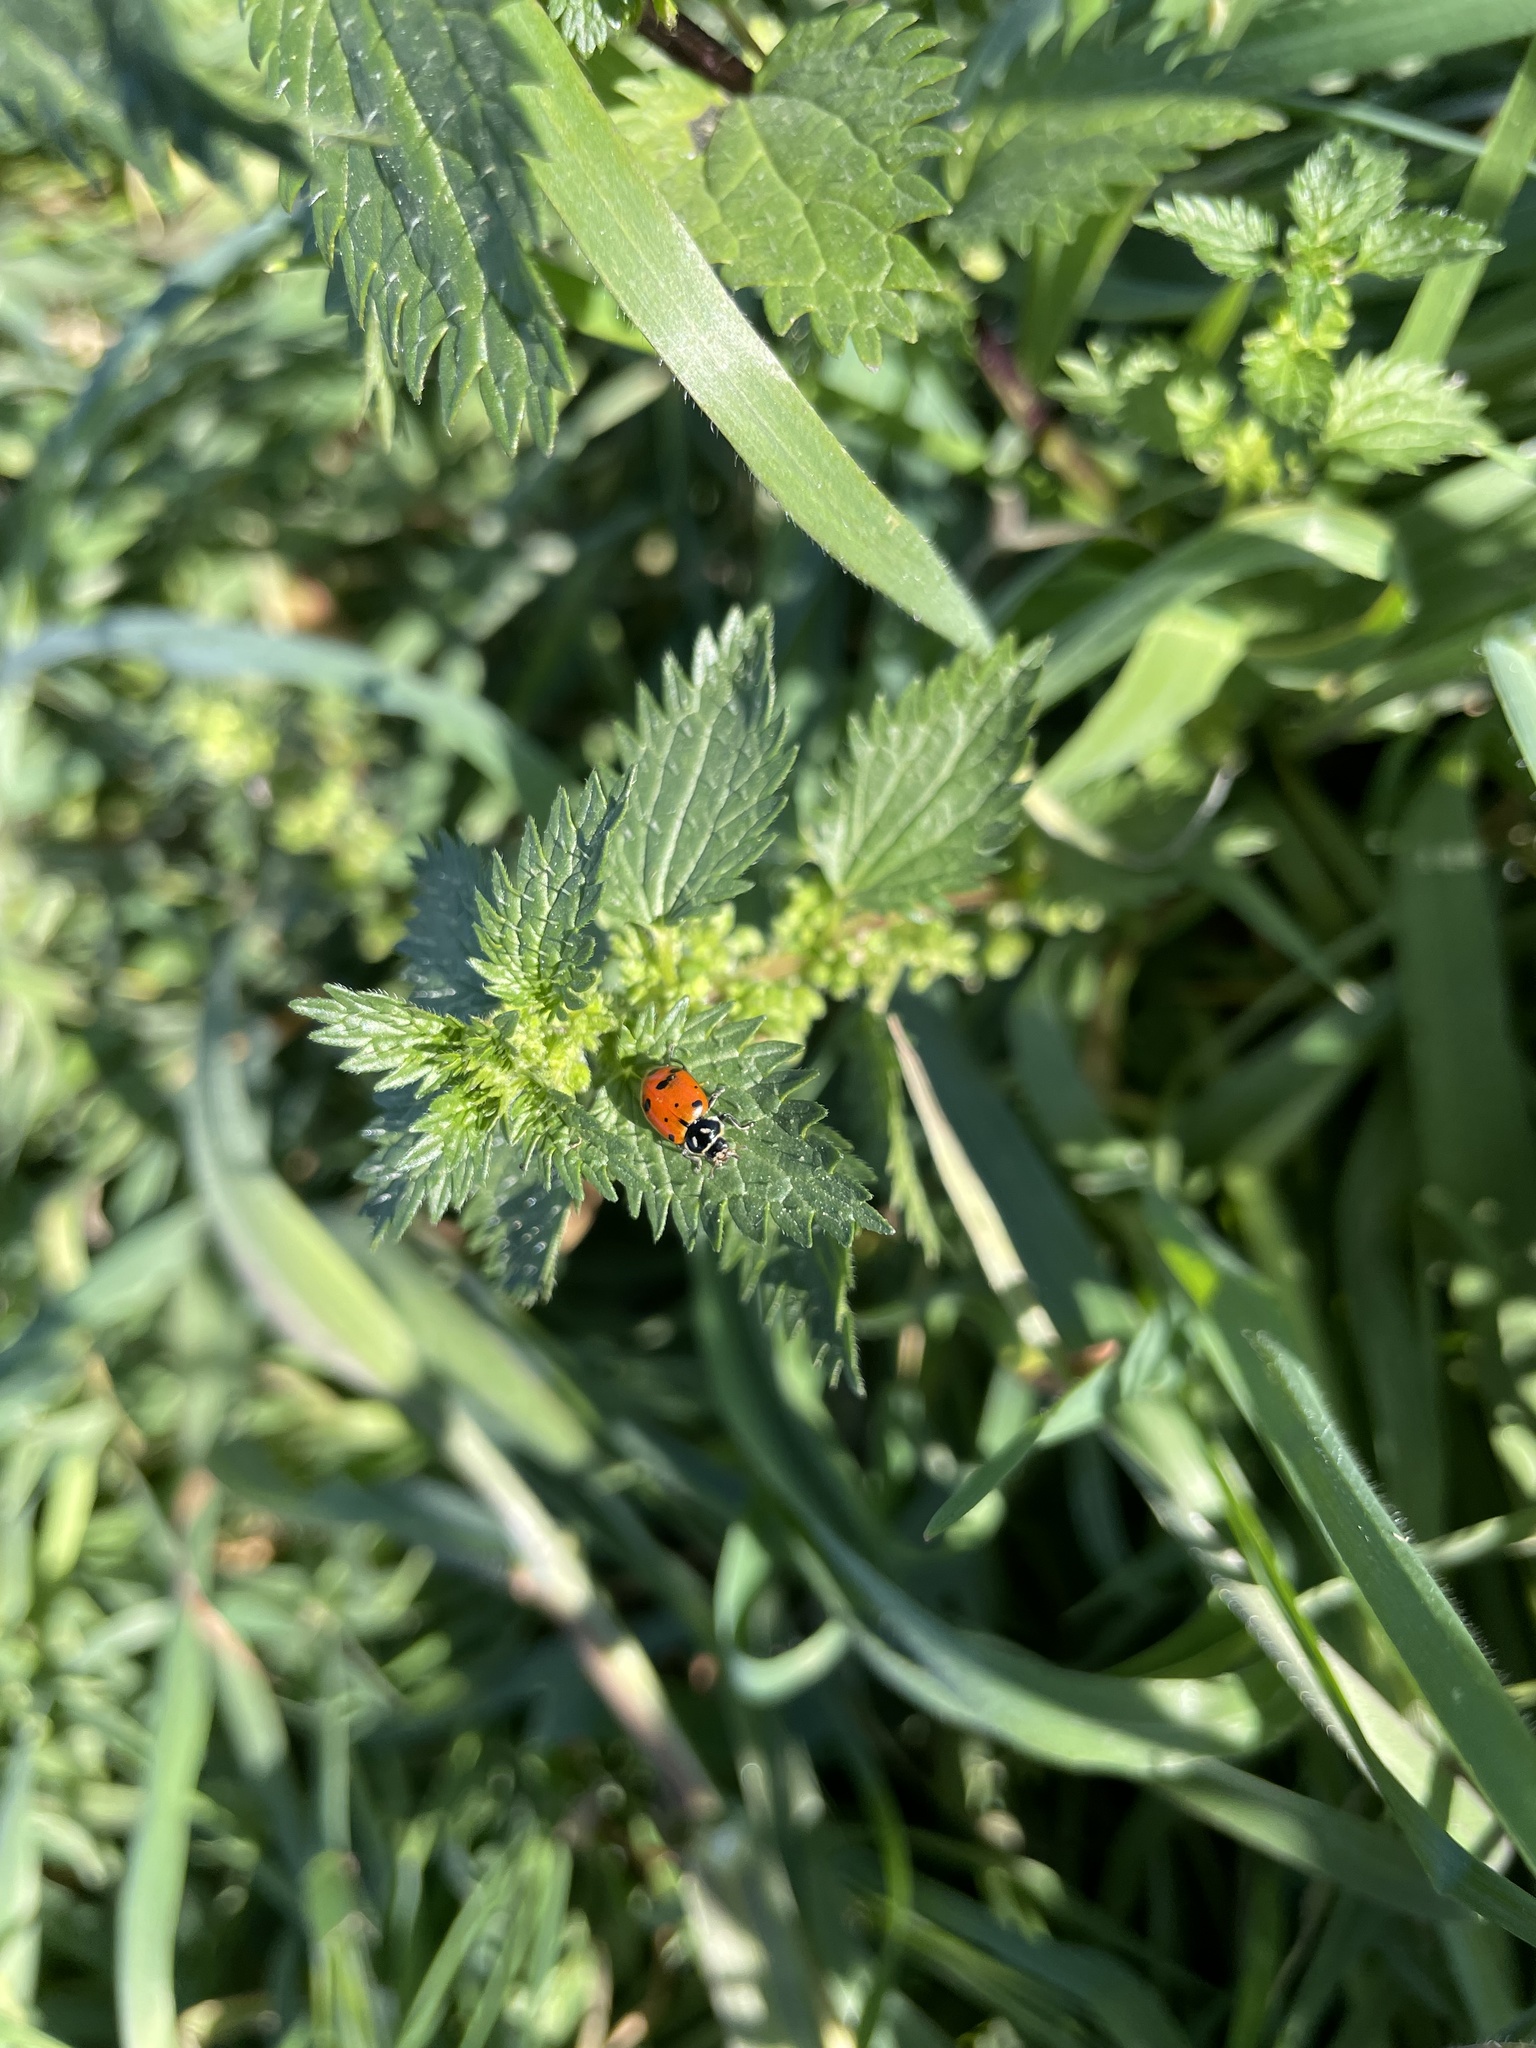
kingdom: Animalia
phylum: Arthropoda
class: Insecta
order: Coleoptera
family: Coccinellidae
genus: Hippodamia
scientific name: Hippodamia convergens
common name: Convergent lady beetle
